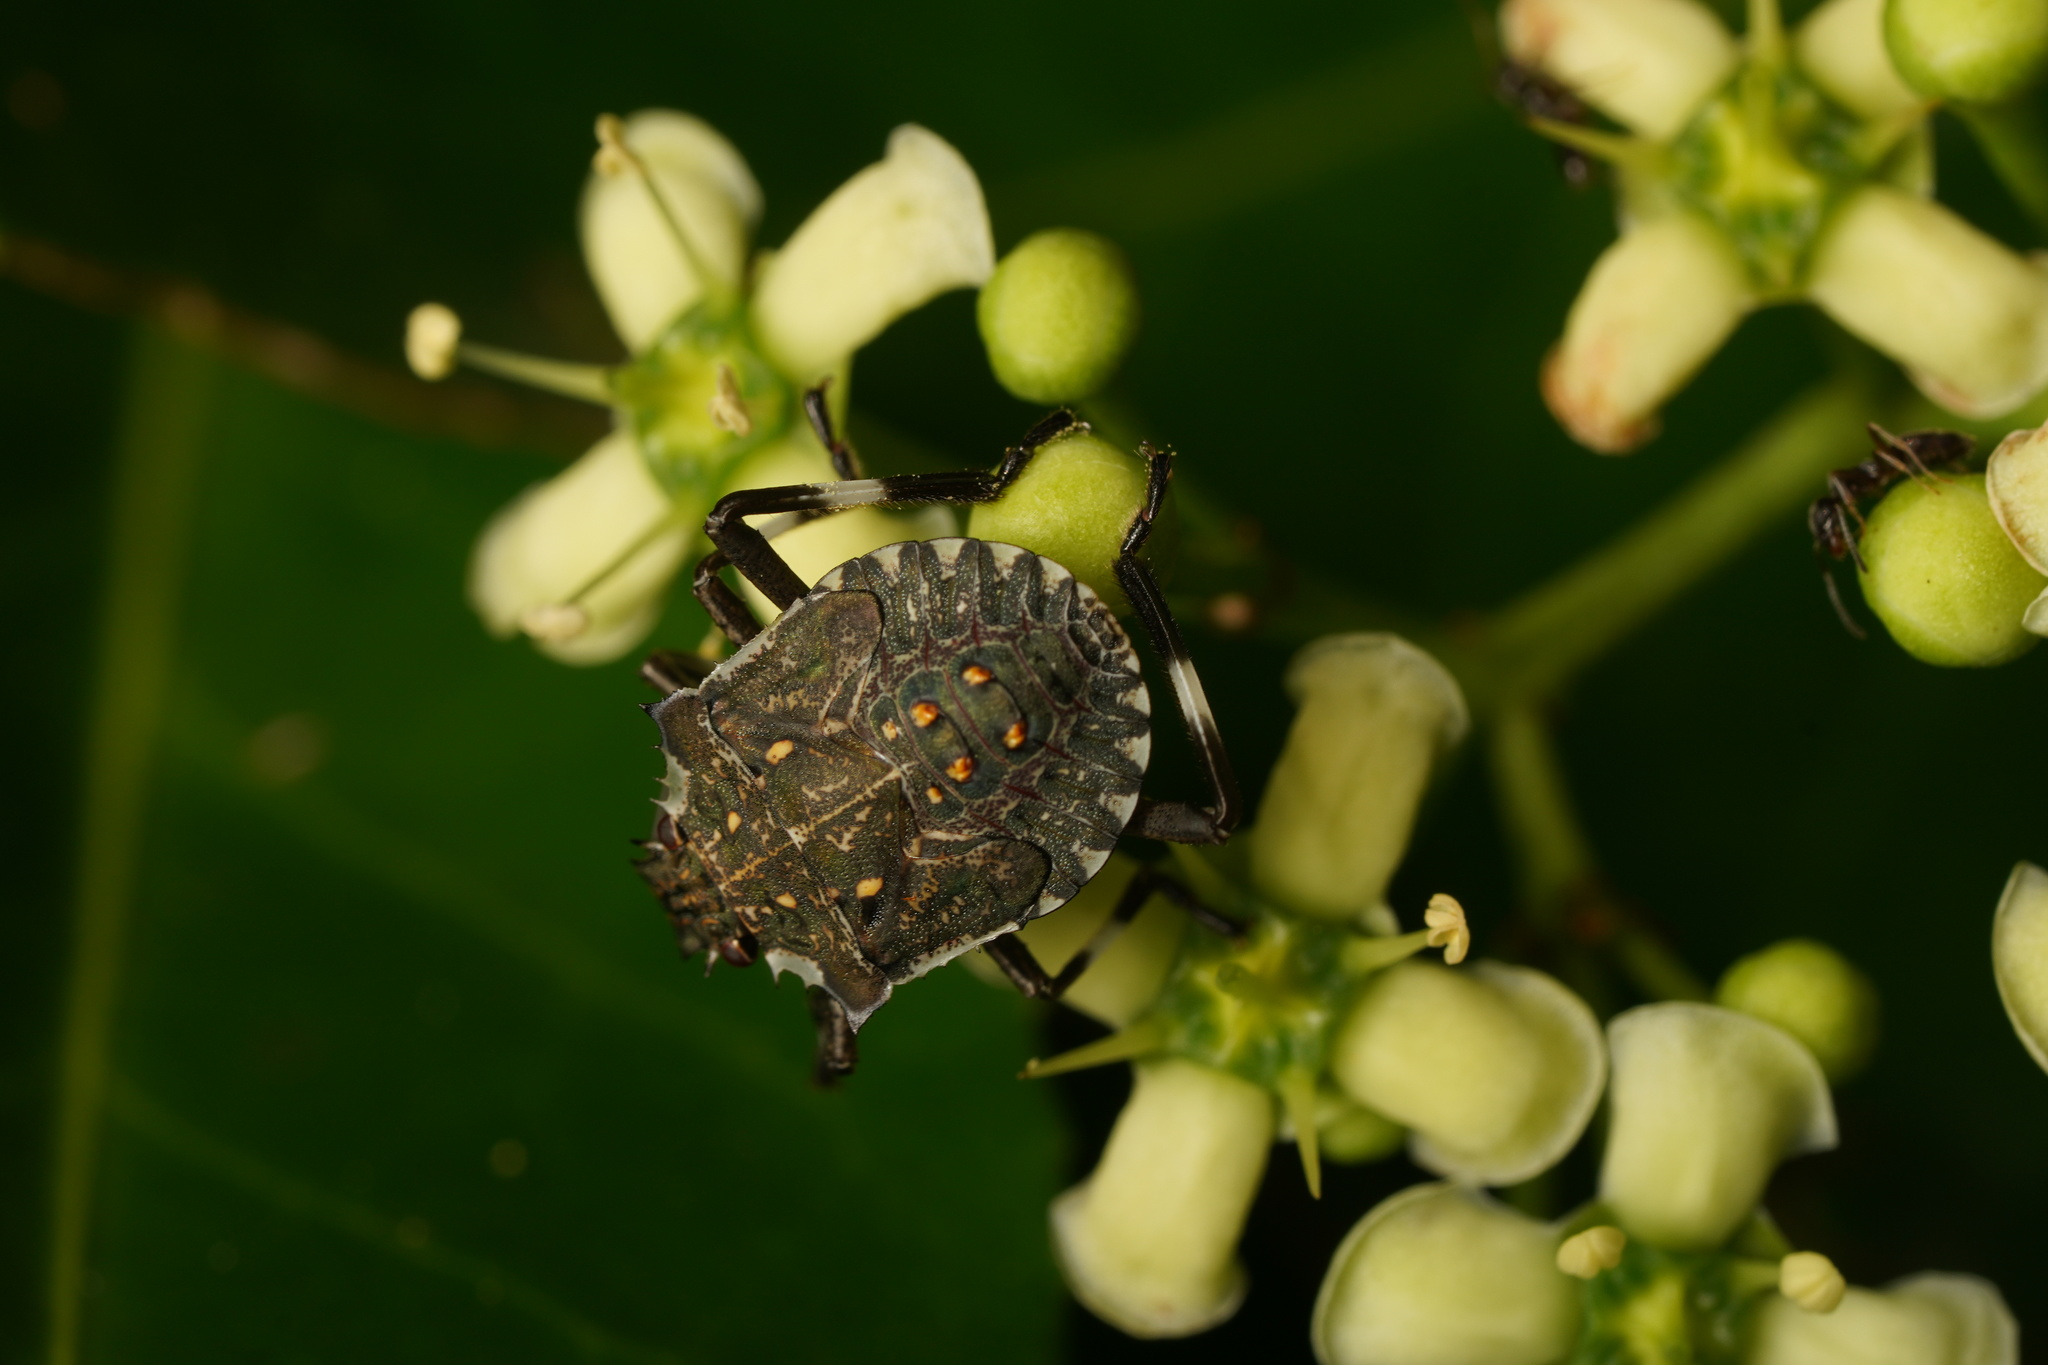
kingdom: Animalia
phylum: Arthropoda
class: Insecta
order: Hemiptera
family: Pentatomidae
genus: Halyomorpha
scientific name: Halyomorpha halys
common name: Brown marmorated stink bug
